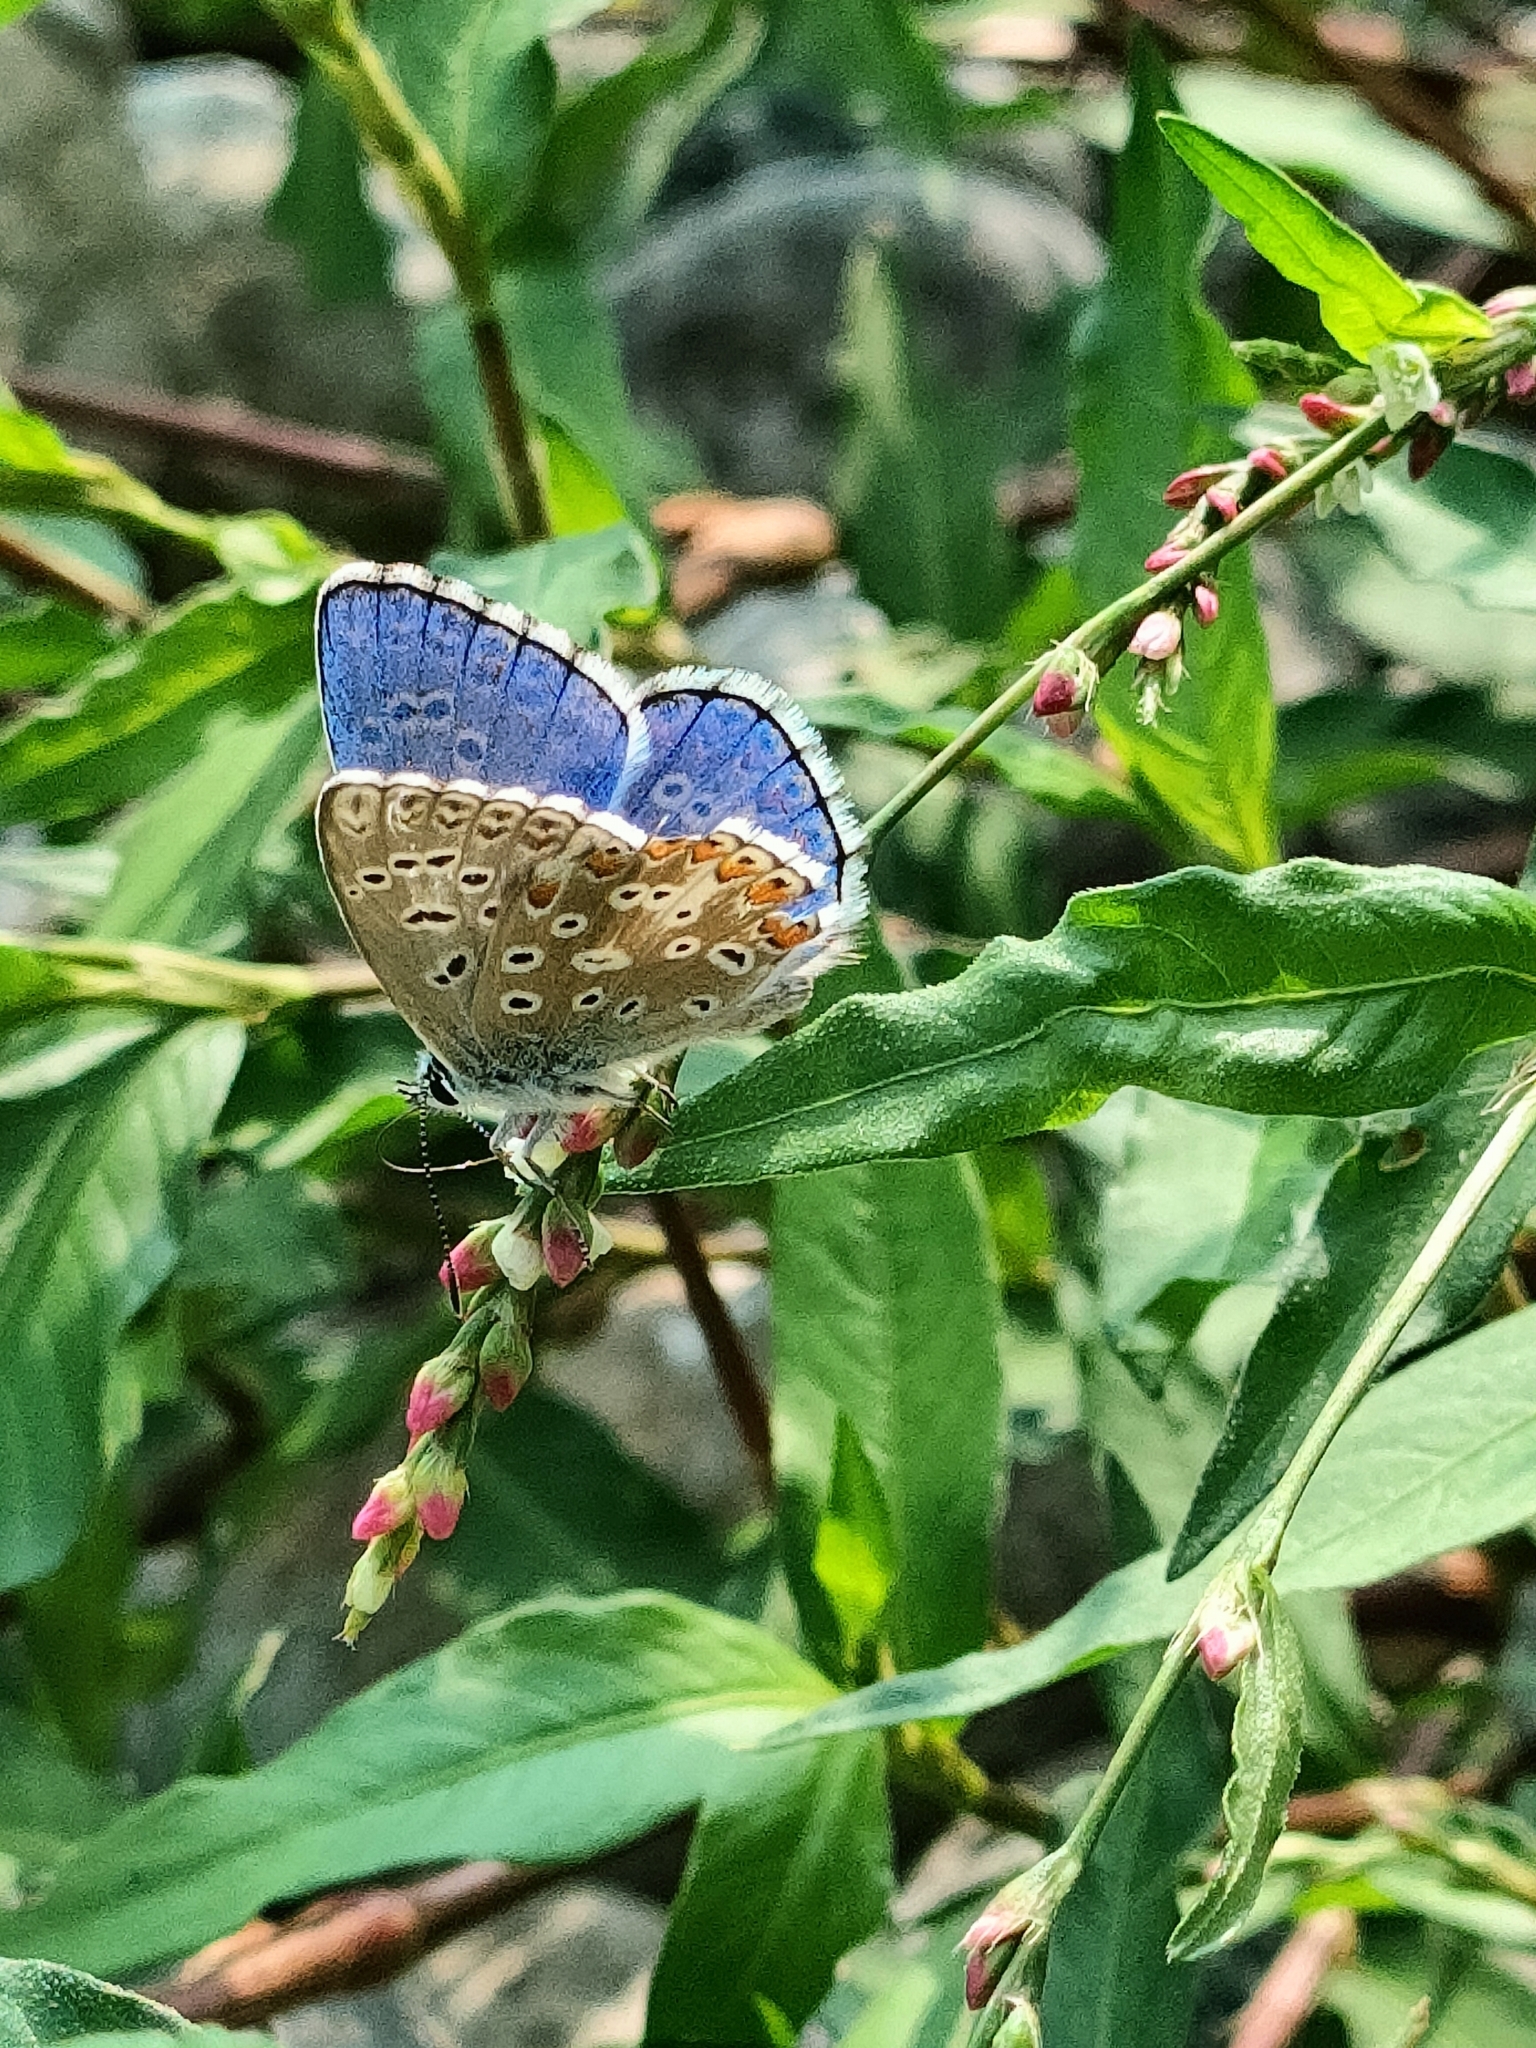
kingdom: Animalia
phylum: Arthropoda
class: Insecta
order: Lepidoptera
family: Lycaenidae
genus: Lysandra
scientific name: Lysandra bellargus
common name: Adonis blue
